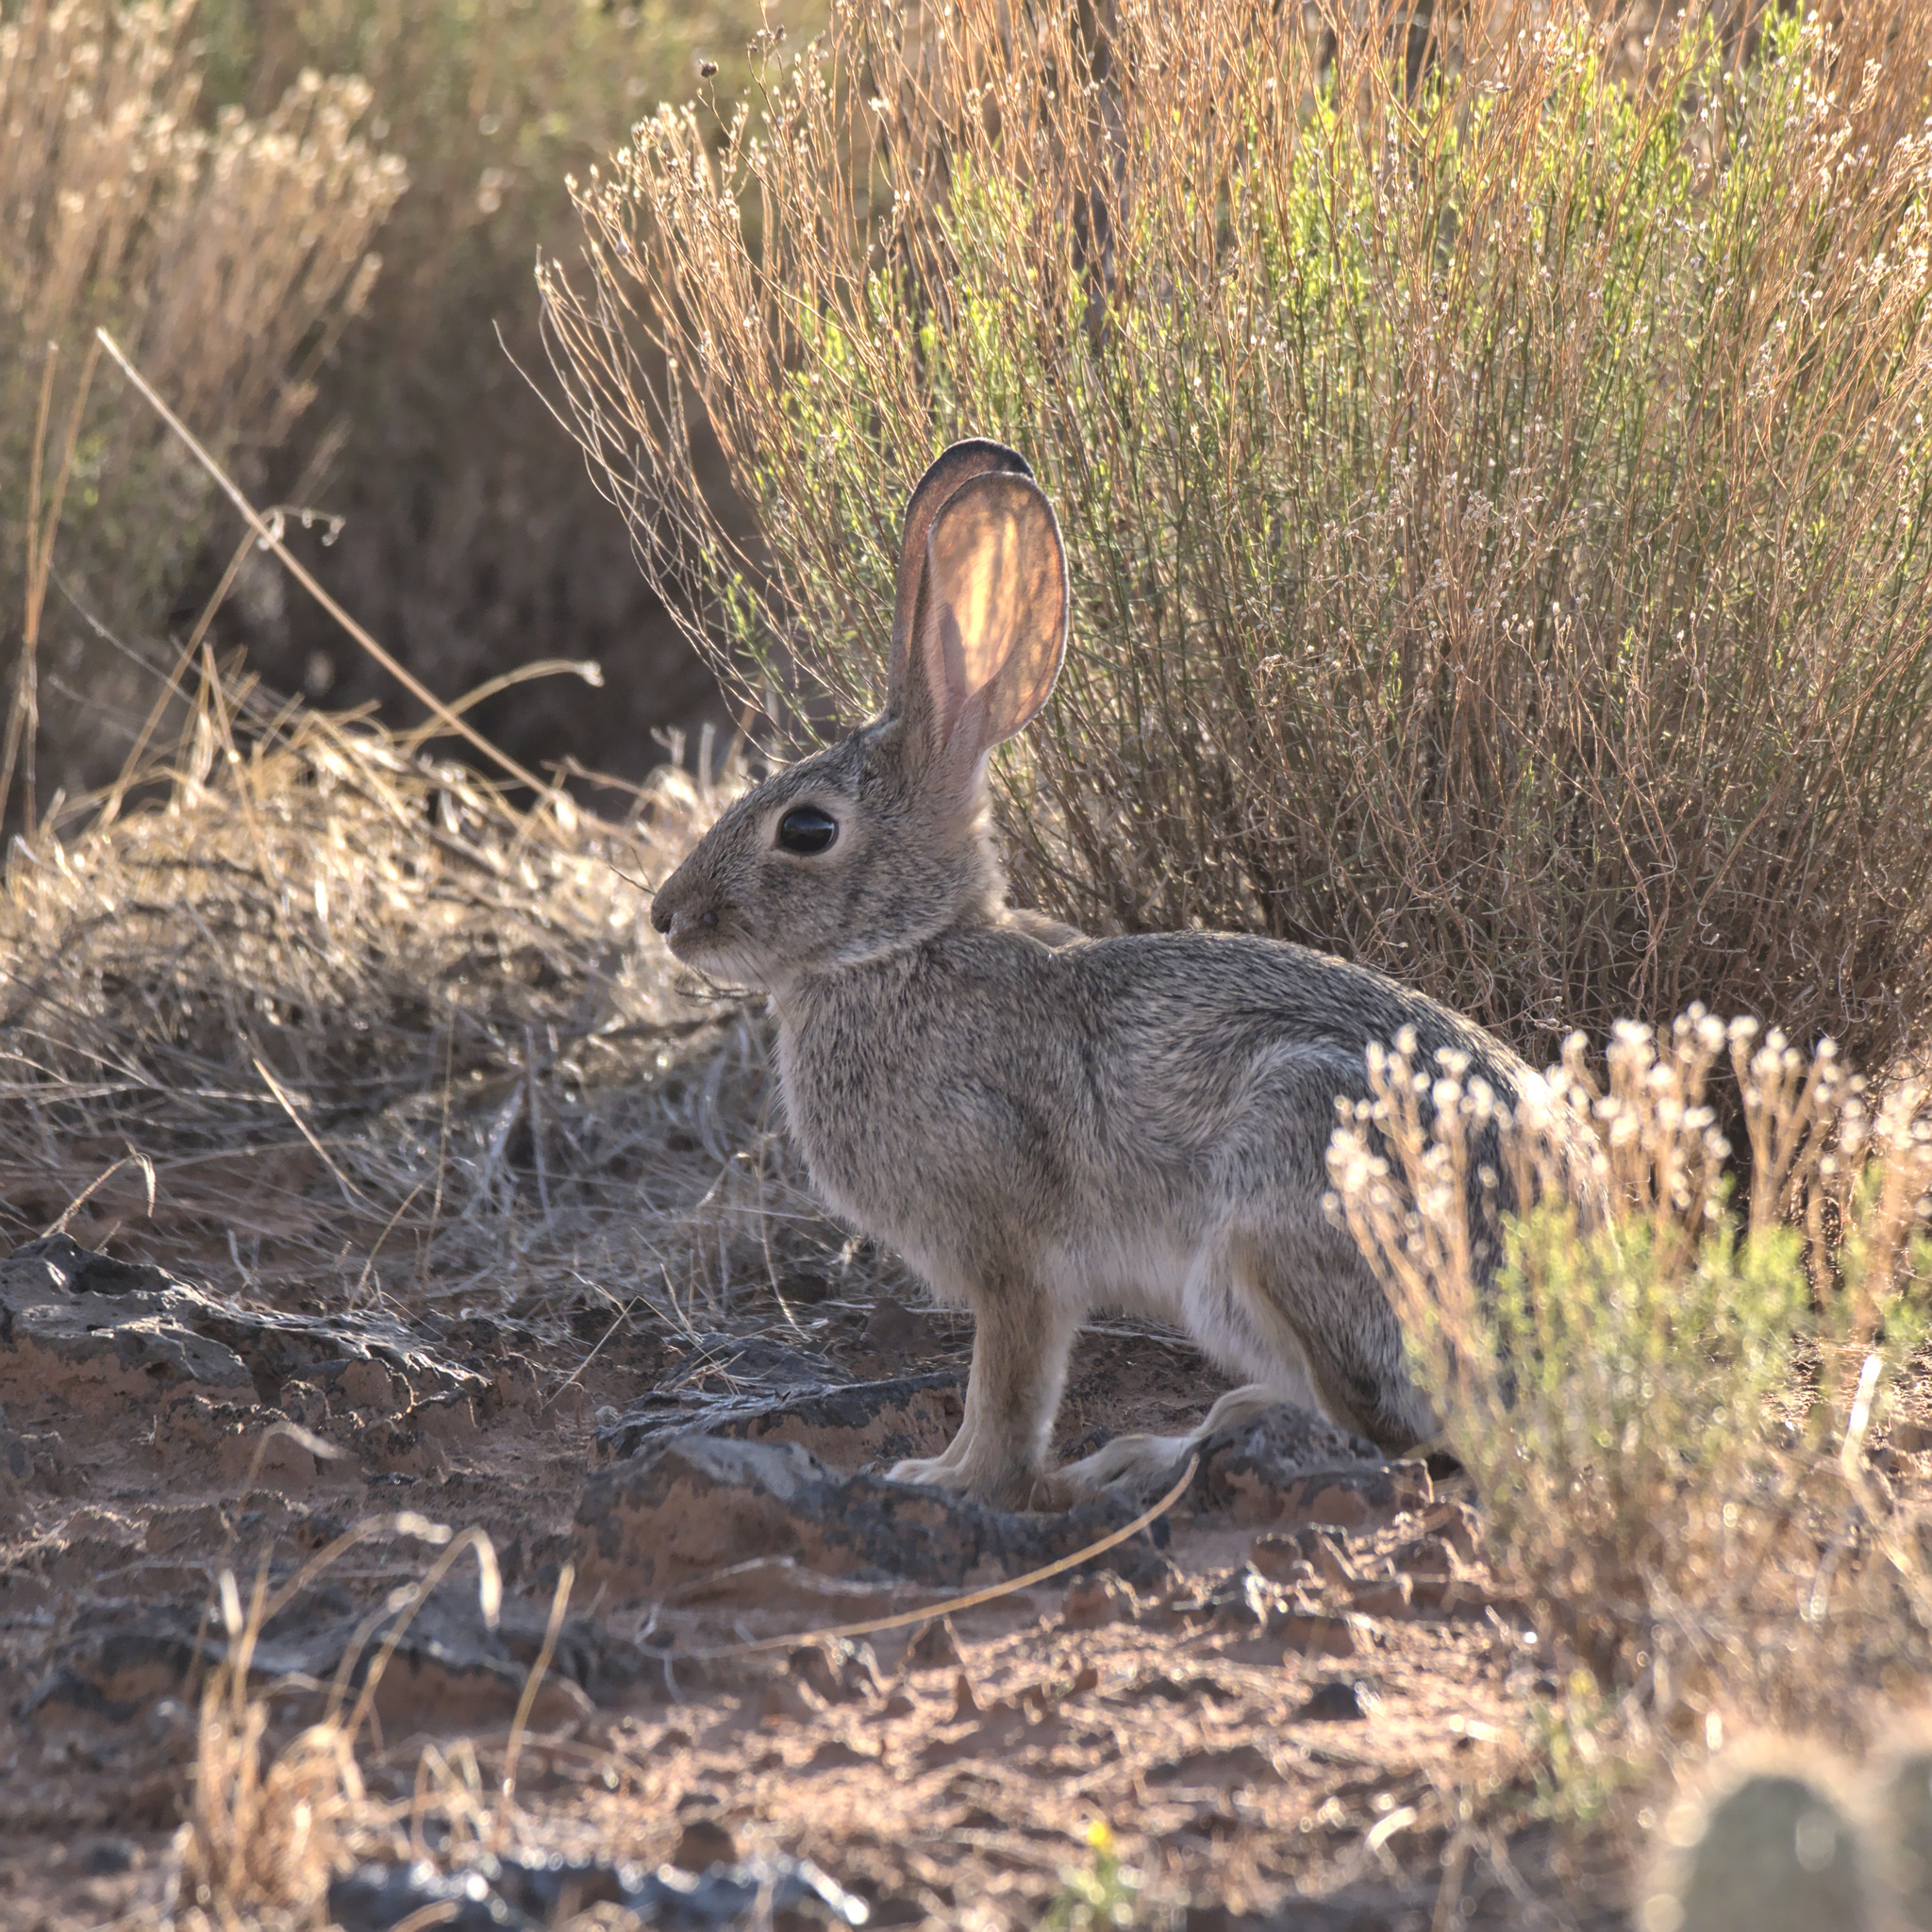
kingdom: Animalia
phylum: Chordata
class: Mammalia
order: Lagomorpha
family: Leporidae
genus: Sylvilagus
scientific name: Sylvilagus audubonii
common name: Desert cottontail
